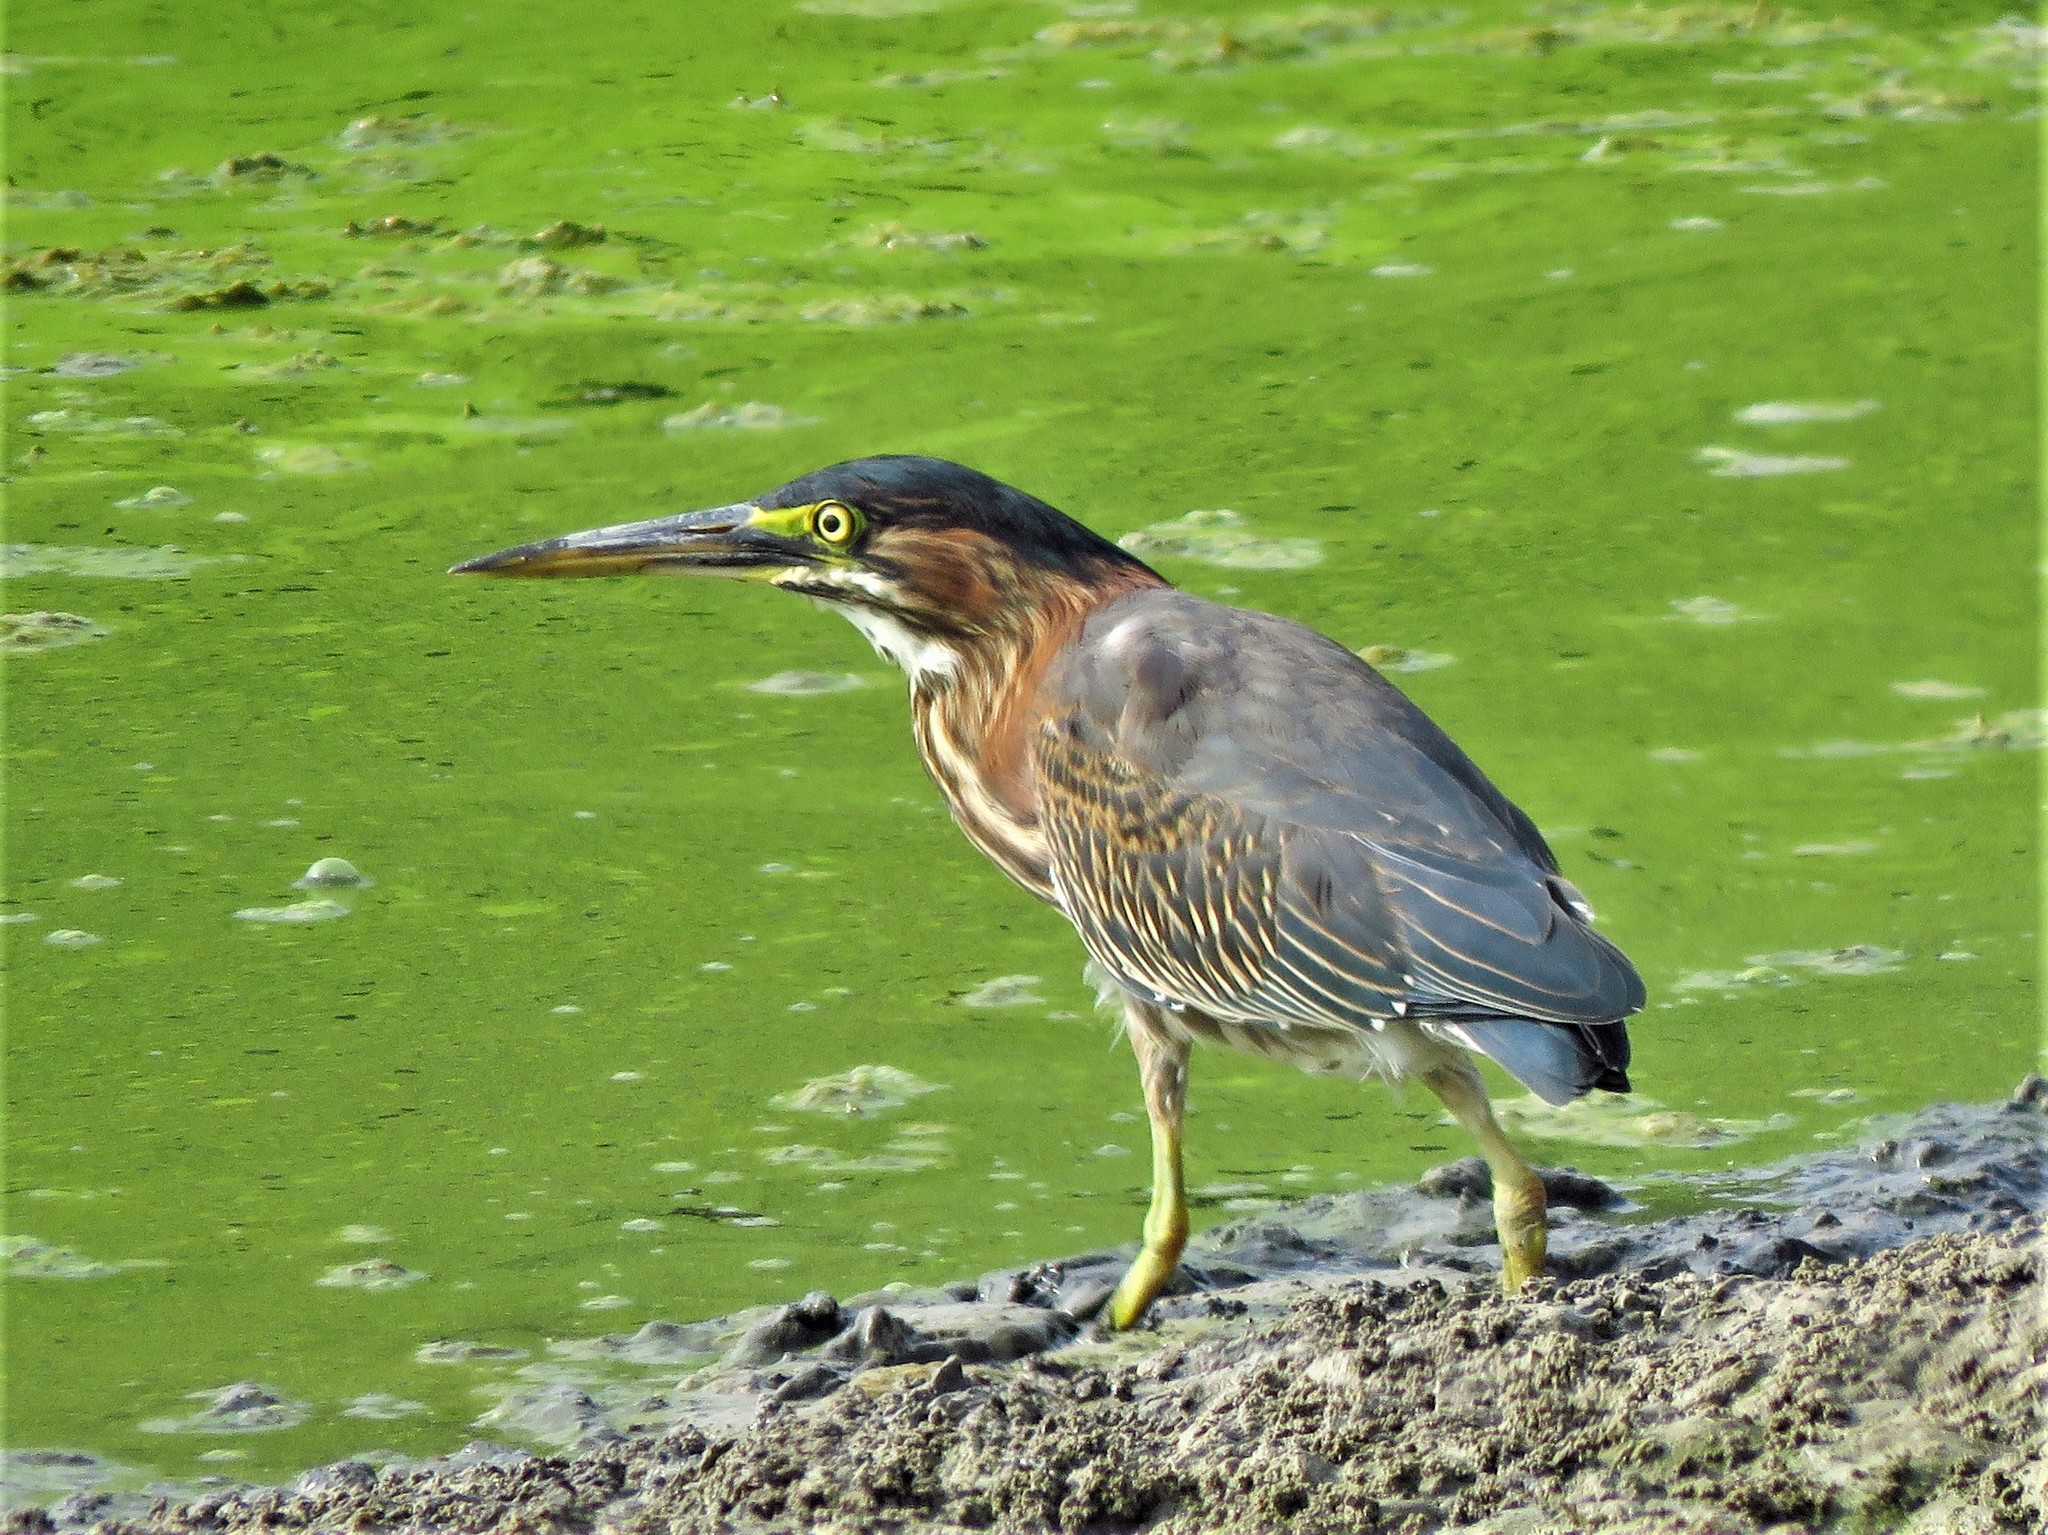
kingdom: Animalia
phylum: Chordata
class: Aves
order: Pelecaniformes
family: Ardeidae
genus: Butorides
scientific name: Butorides virescens
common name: Green heron
